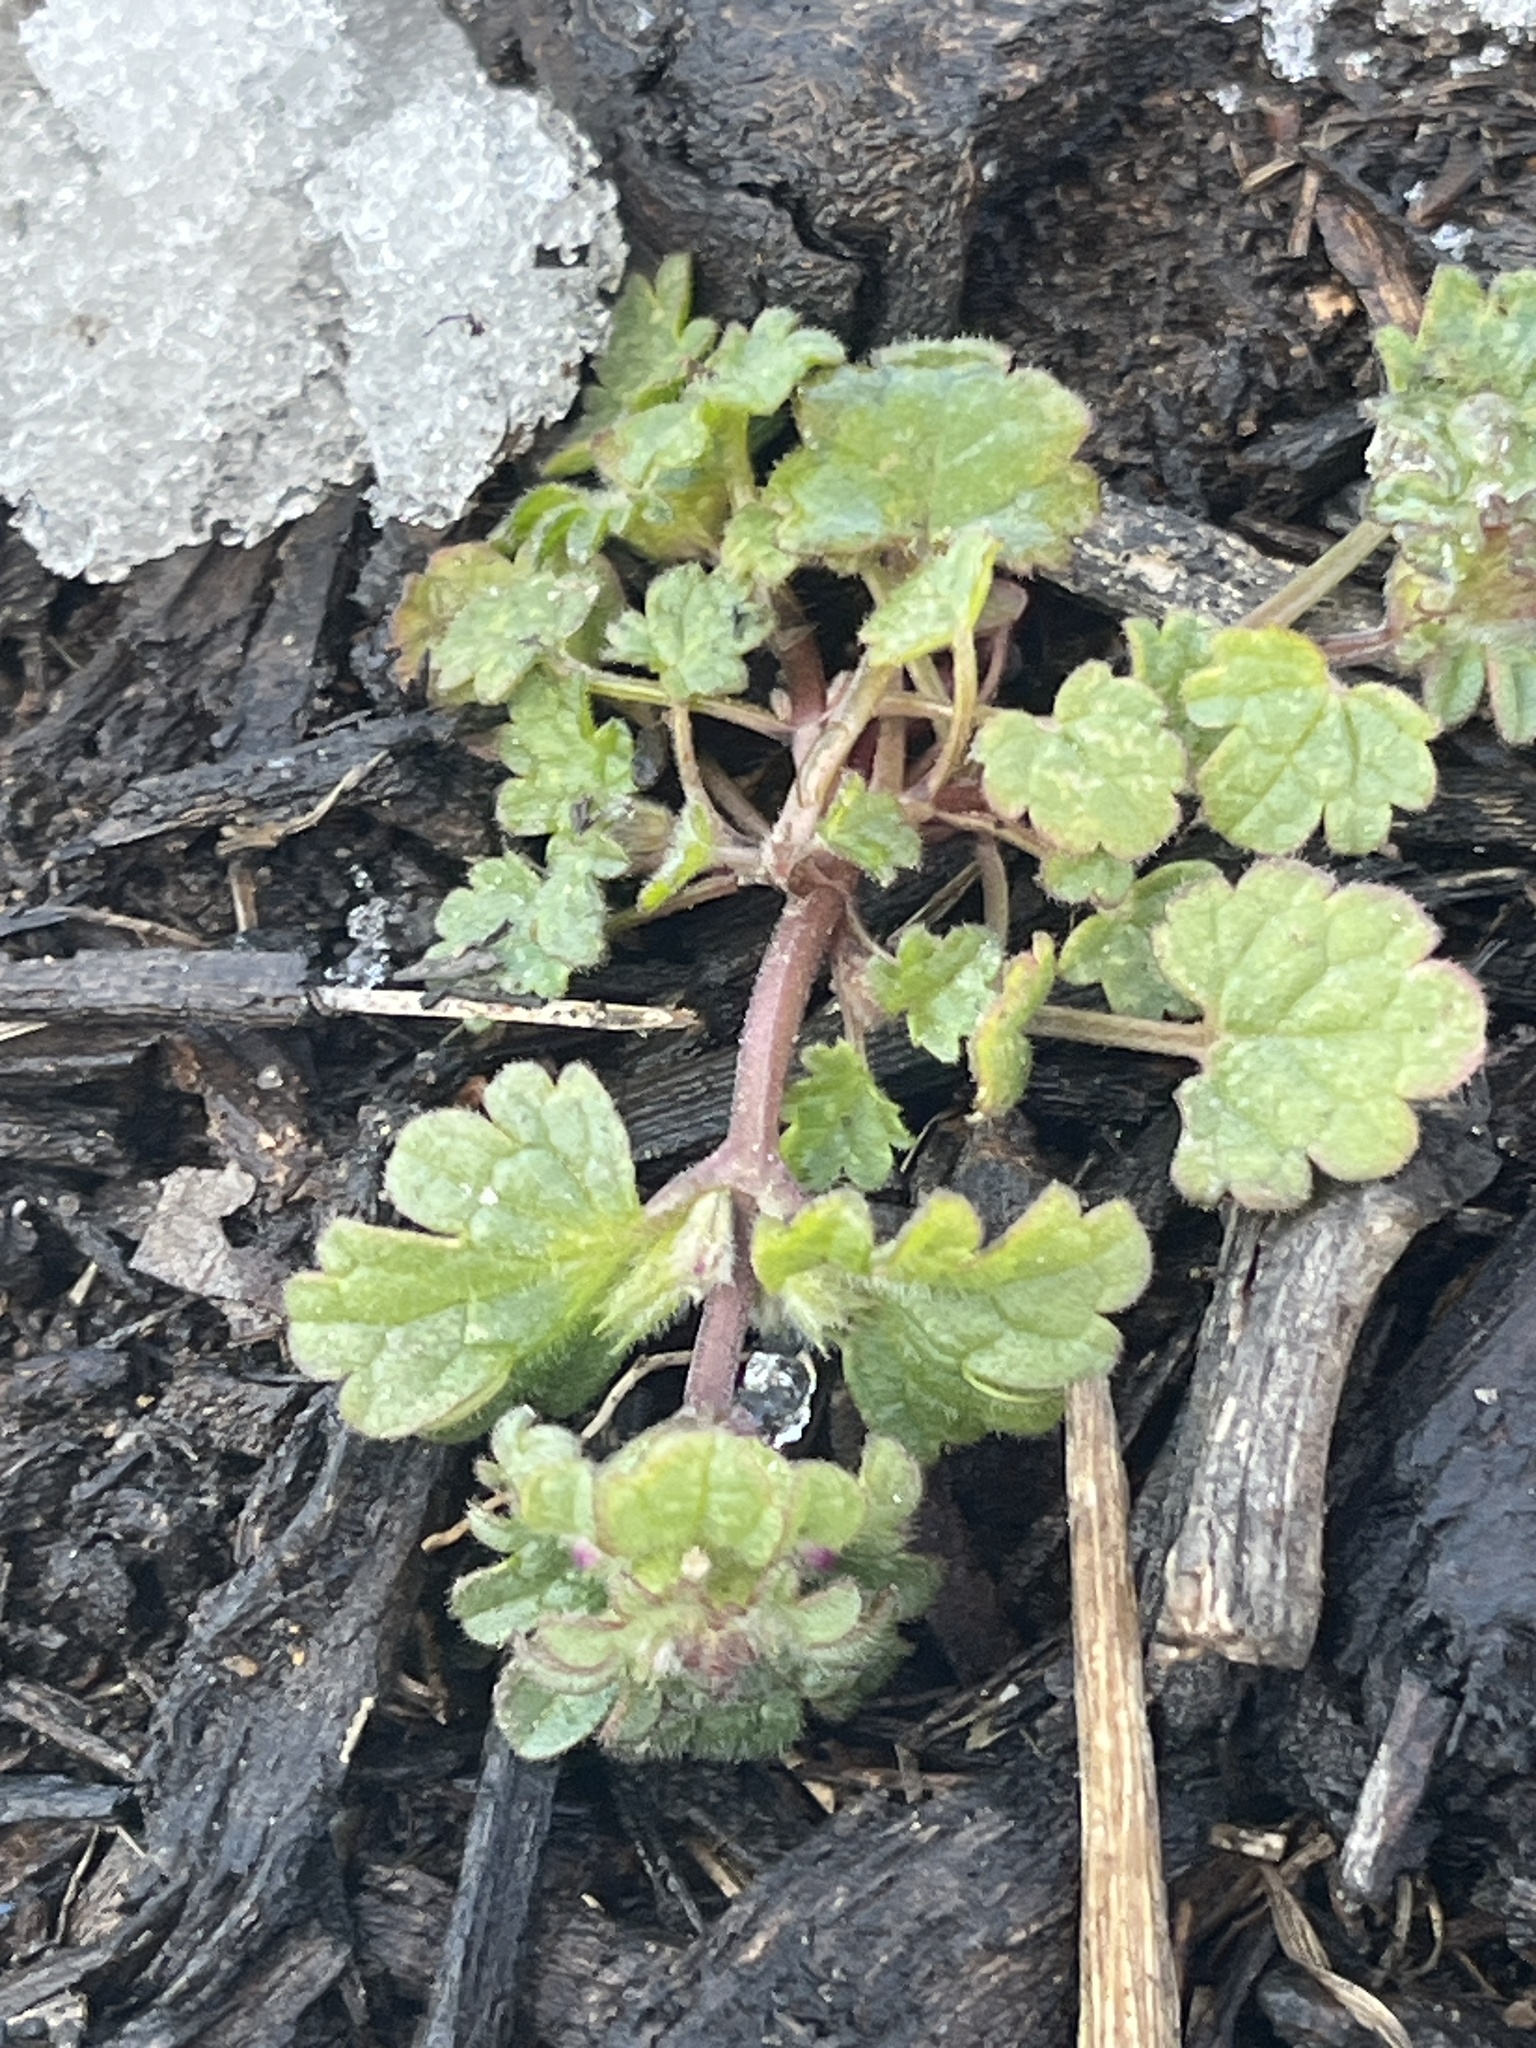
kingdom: Plantae
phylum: Tracheophyta
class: Magnoliopsida
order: Lamiales
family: Lamiaceae
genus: Lamium
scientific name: Lamium amplexicaule
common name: Henbit dead-nettle
